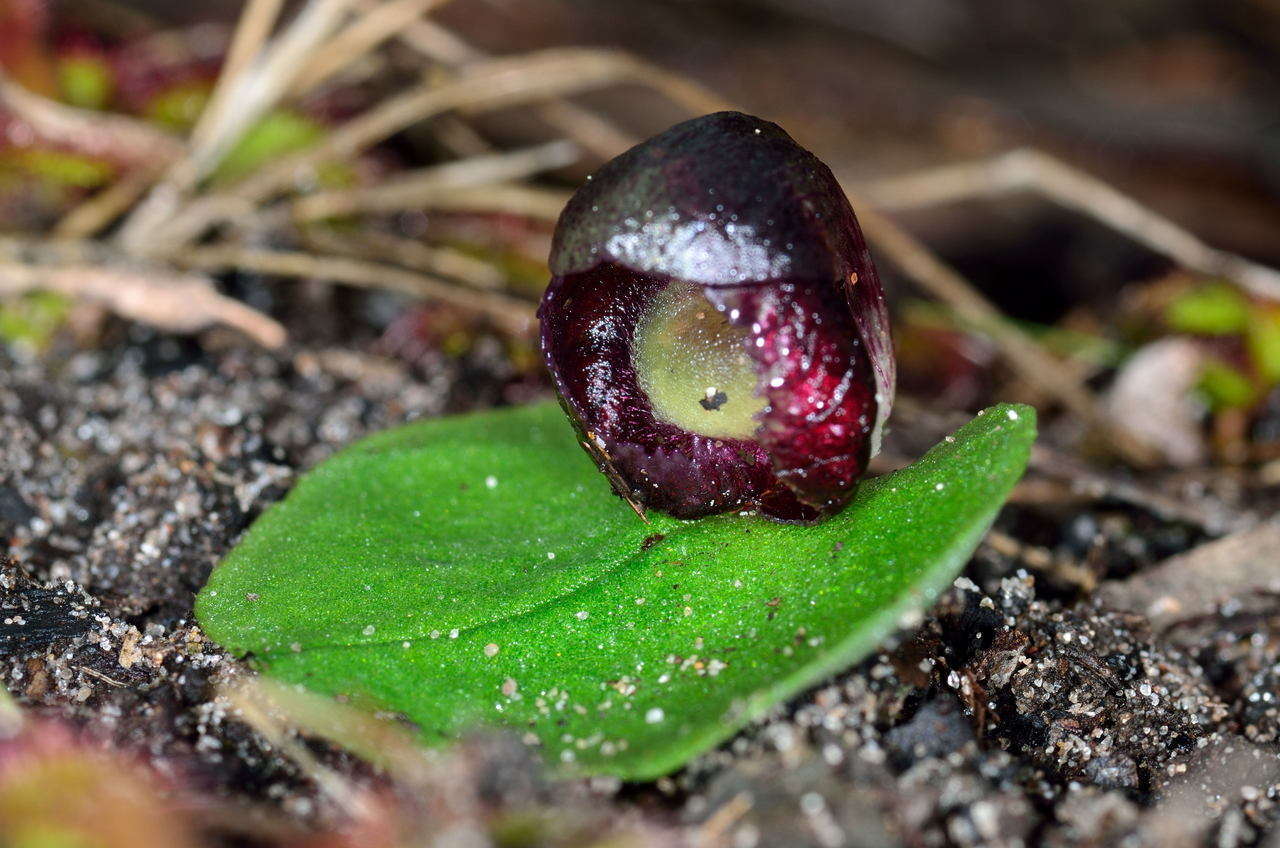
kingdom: Plantae
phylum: Tracheophyta
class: Liliopsida
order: Asparagales
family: Orchidaceae
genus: Corybas
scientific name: Corybas incurvus
